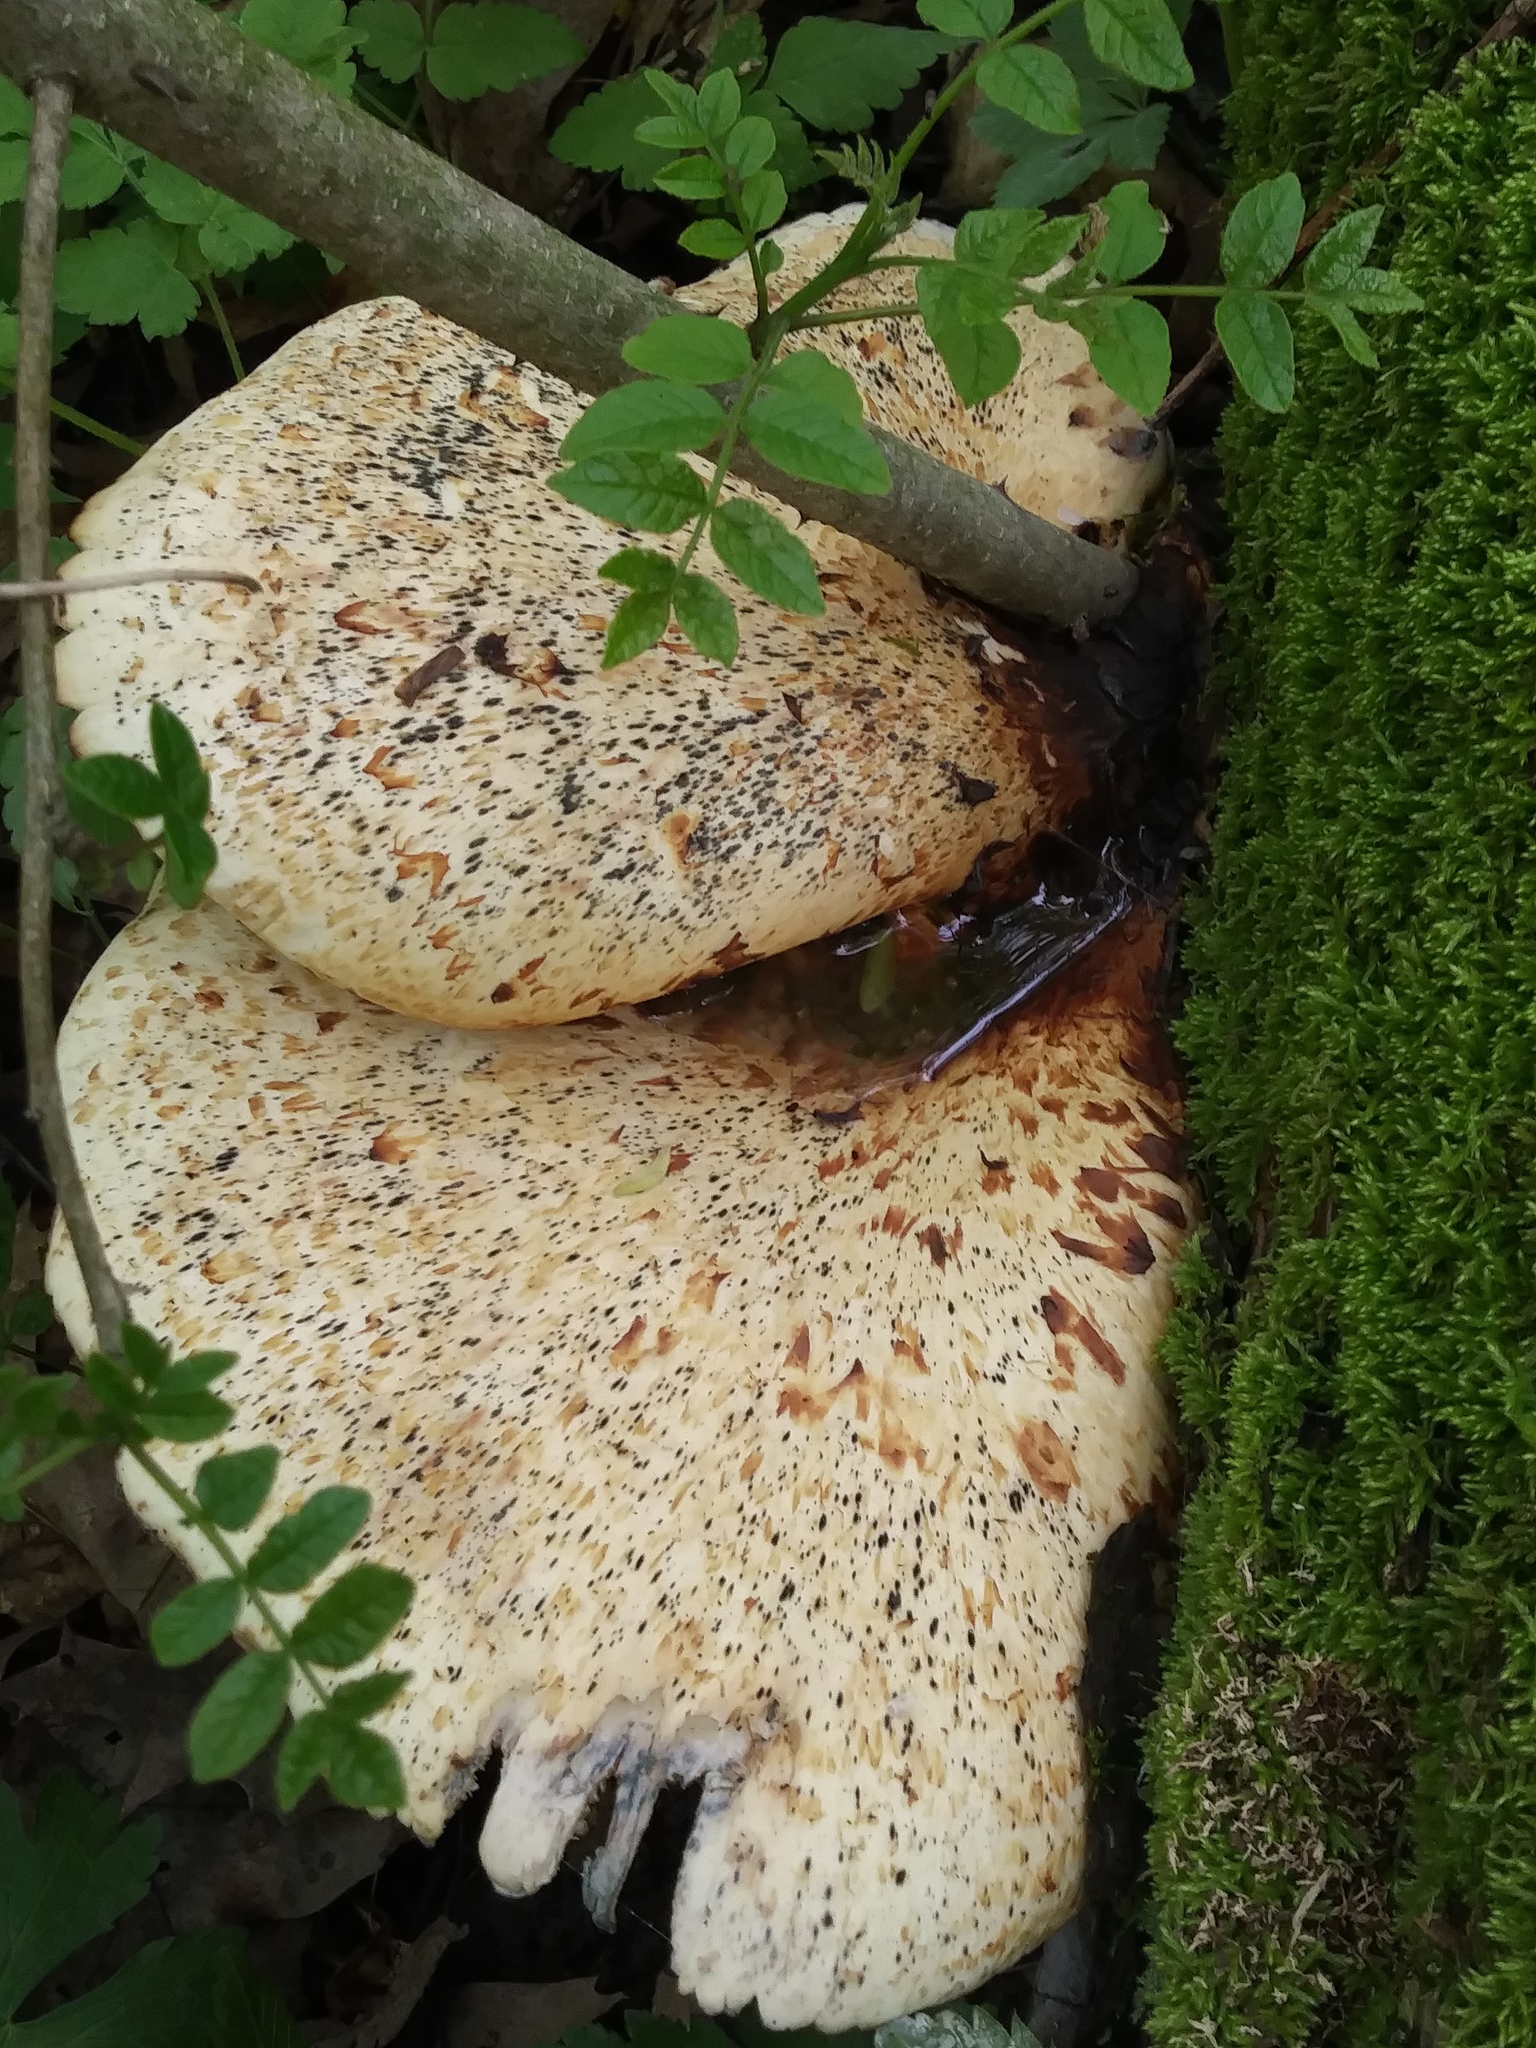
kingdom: Fungi
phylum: Basidiomycota
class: Agaricomycetes
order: Polyporales
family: Polyporaceae
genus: Cerioporus
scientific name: Cerioporus squamosus
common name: Dryad's saddle
